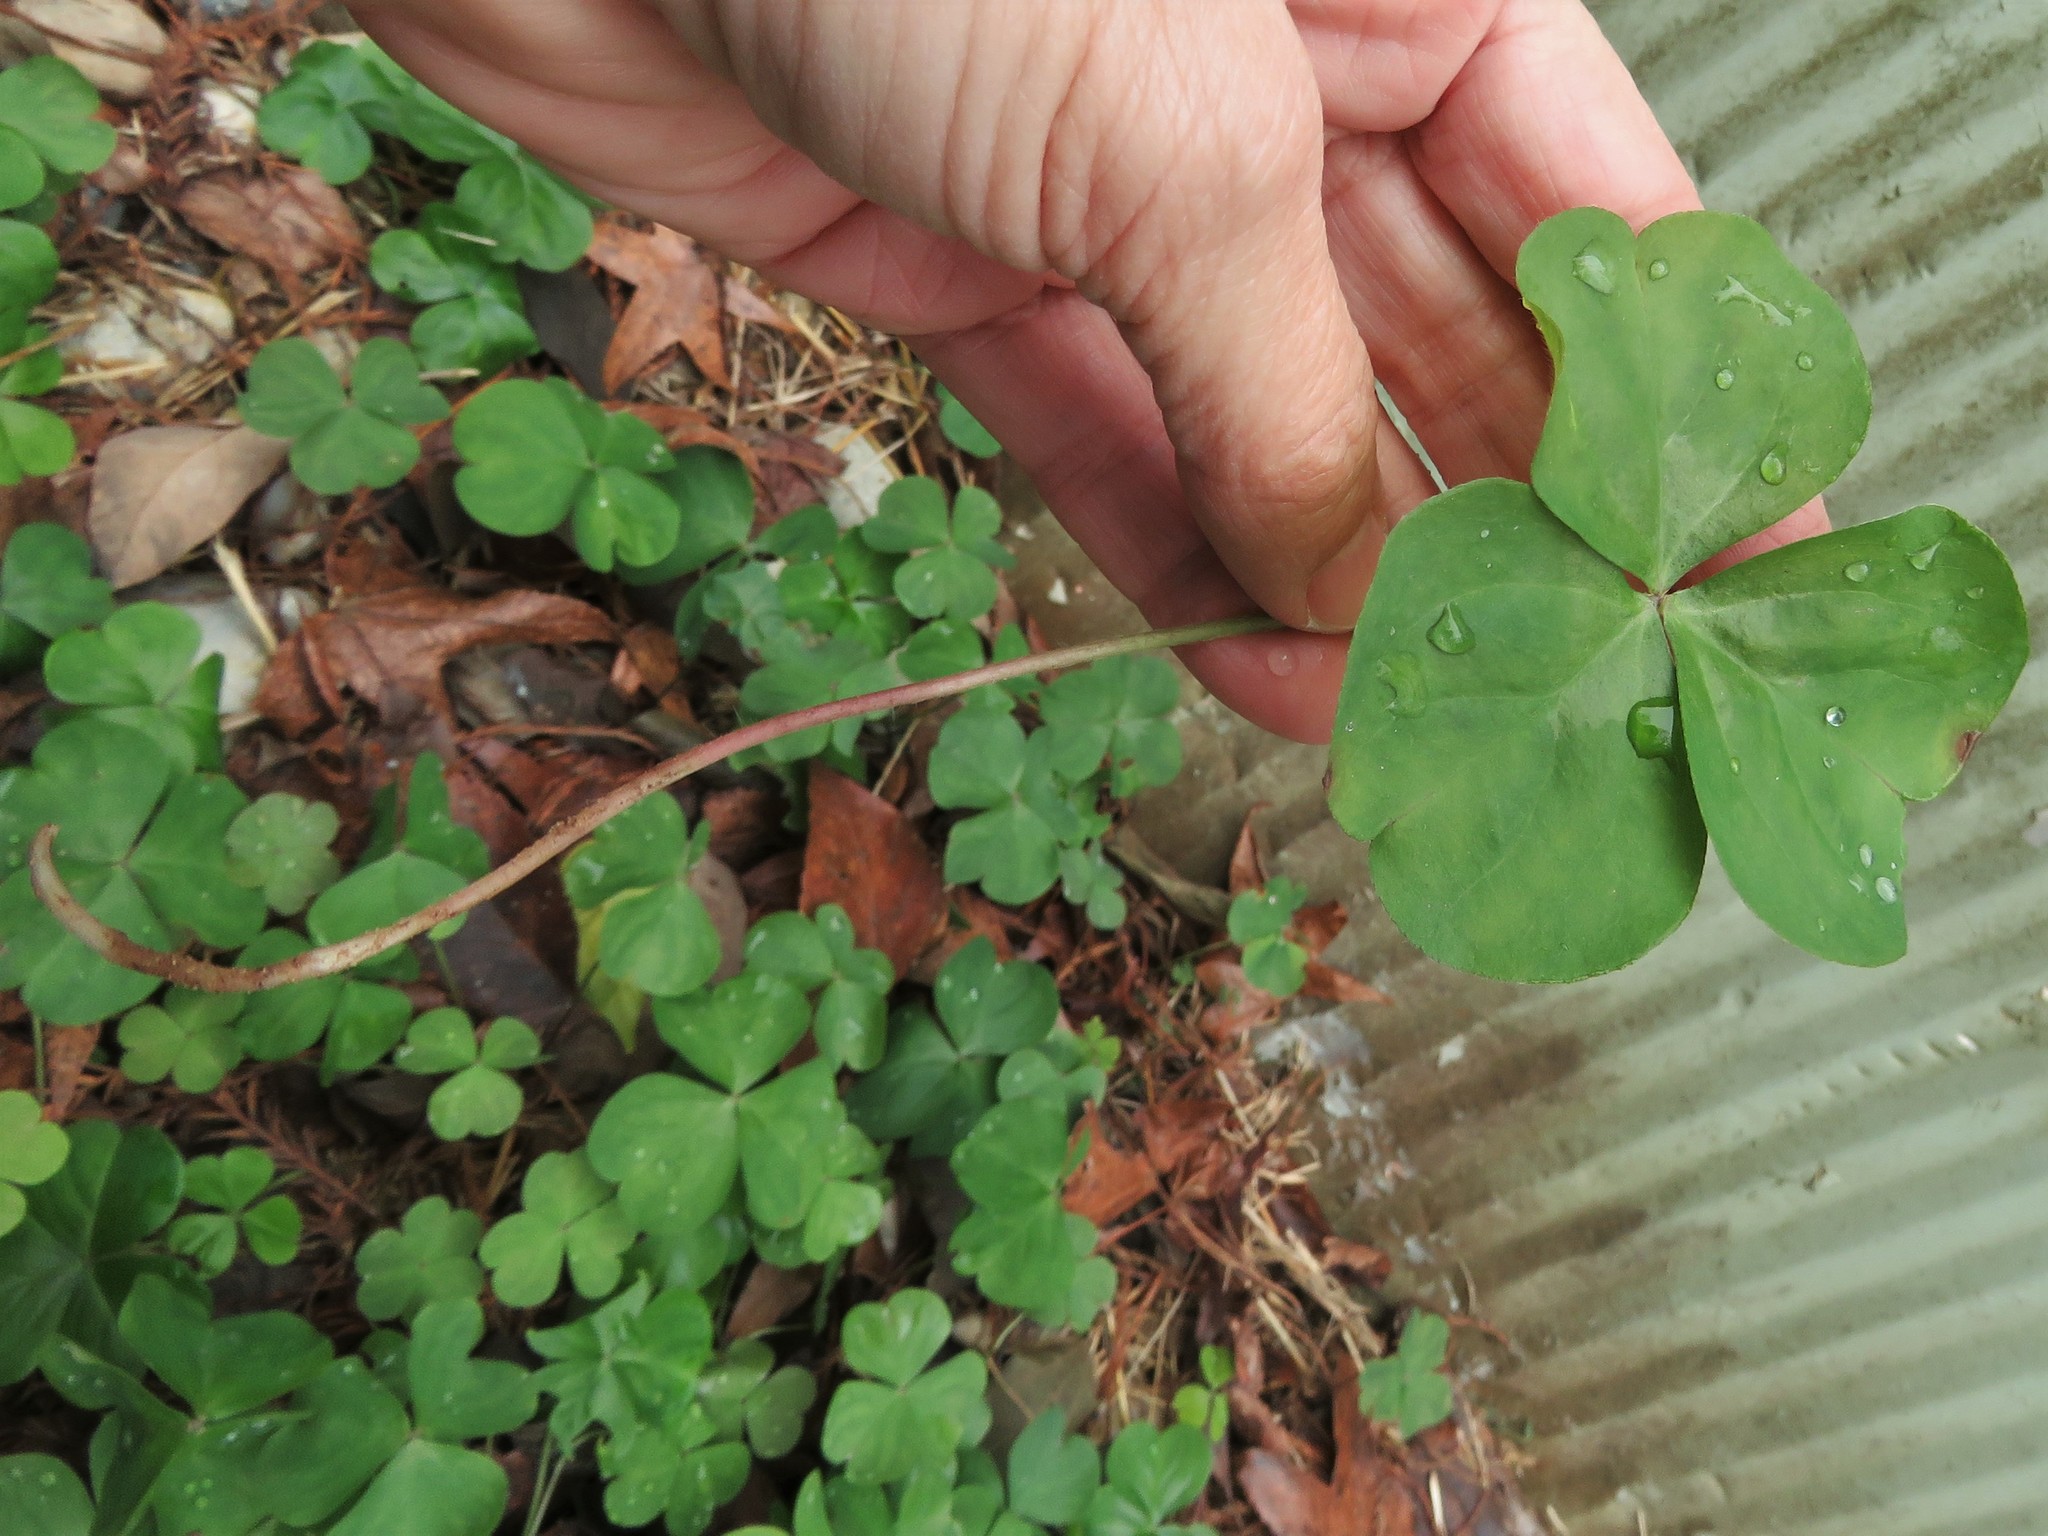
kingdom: Plantae
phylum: Tracheophyta
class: Magnoliopsida
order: Oxalidales
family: Oxalidaceae
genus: Oxalis
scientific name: Oxalis debilis
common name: Large-flowered pink-sorrel
